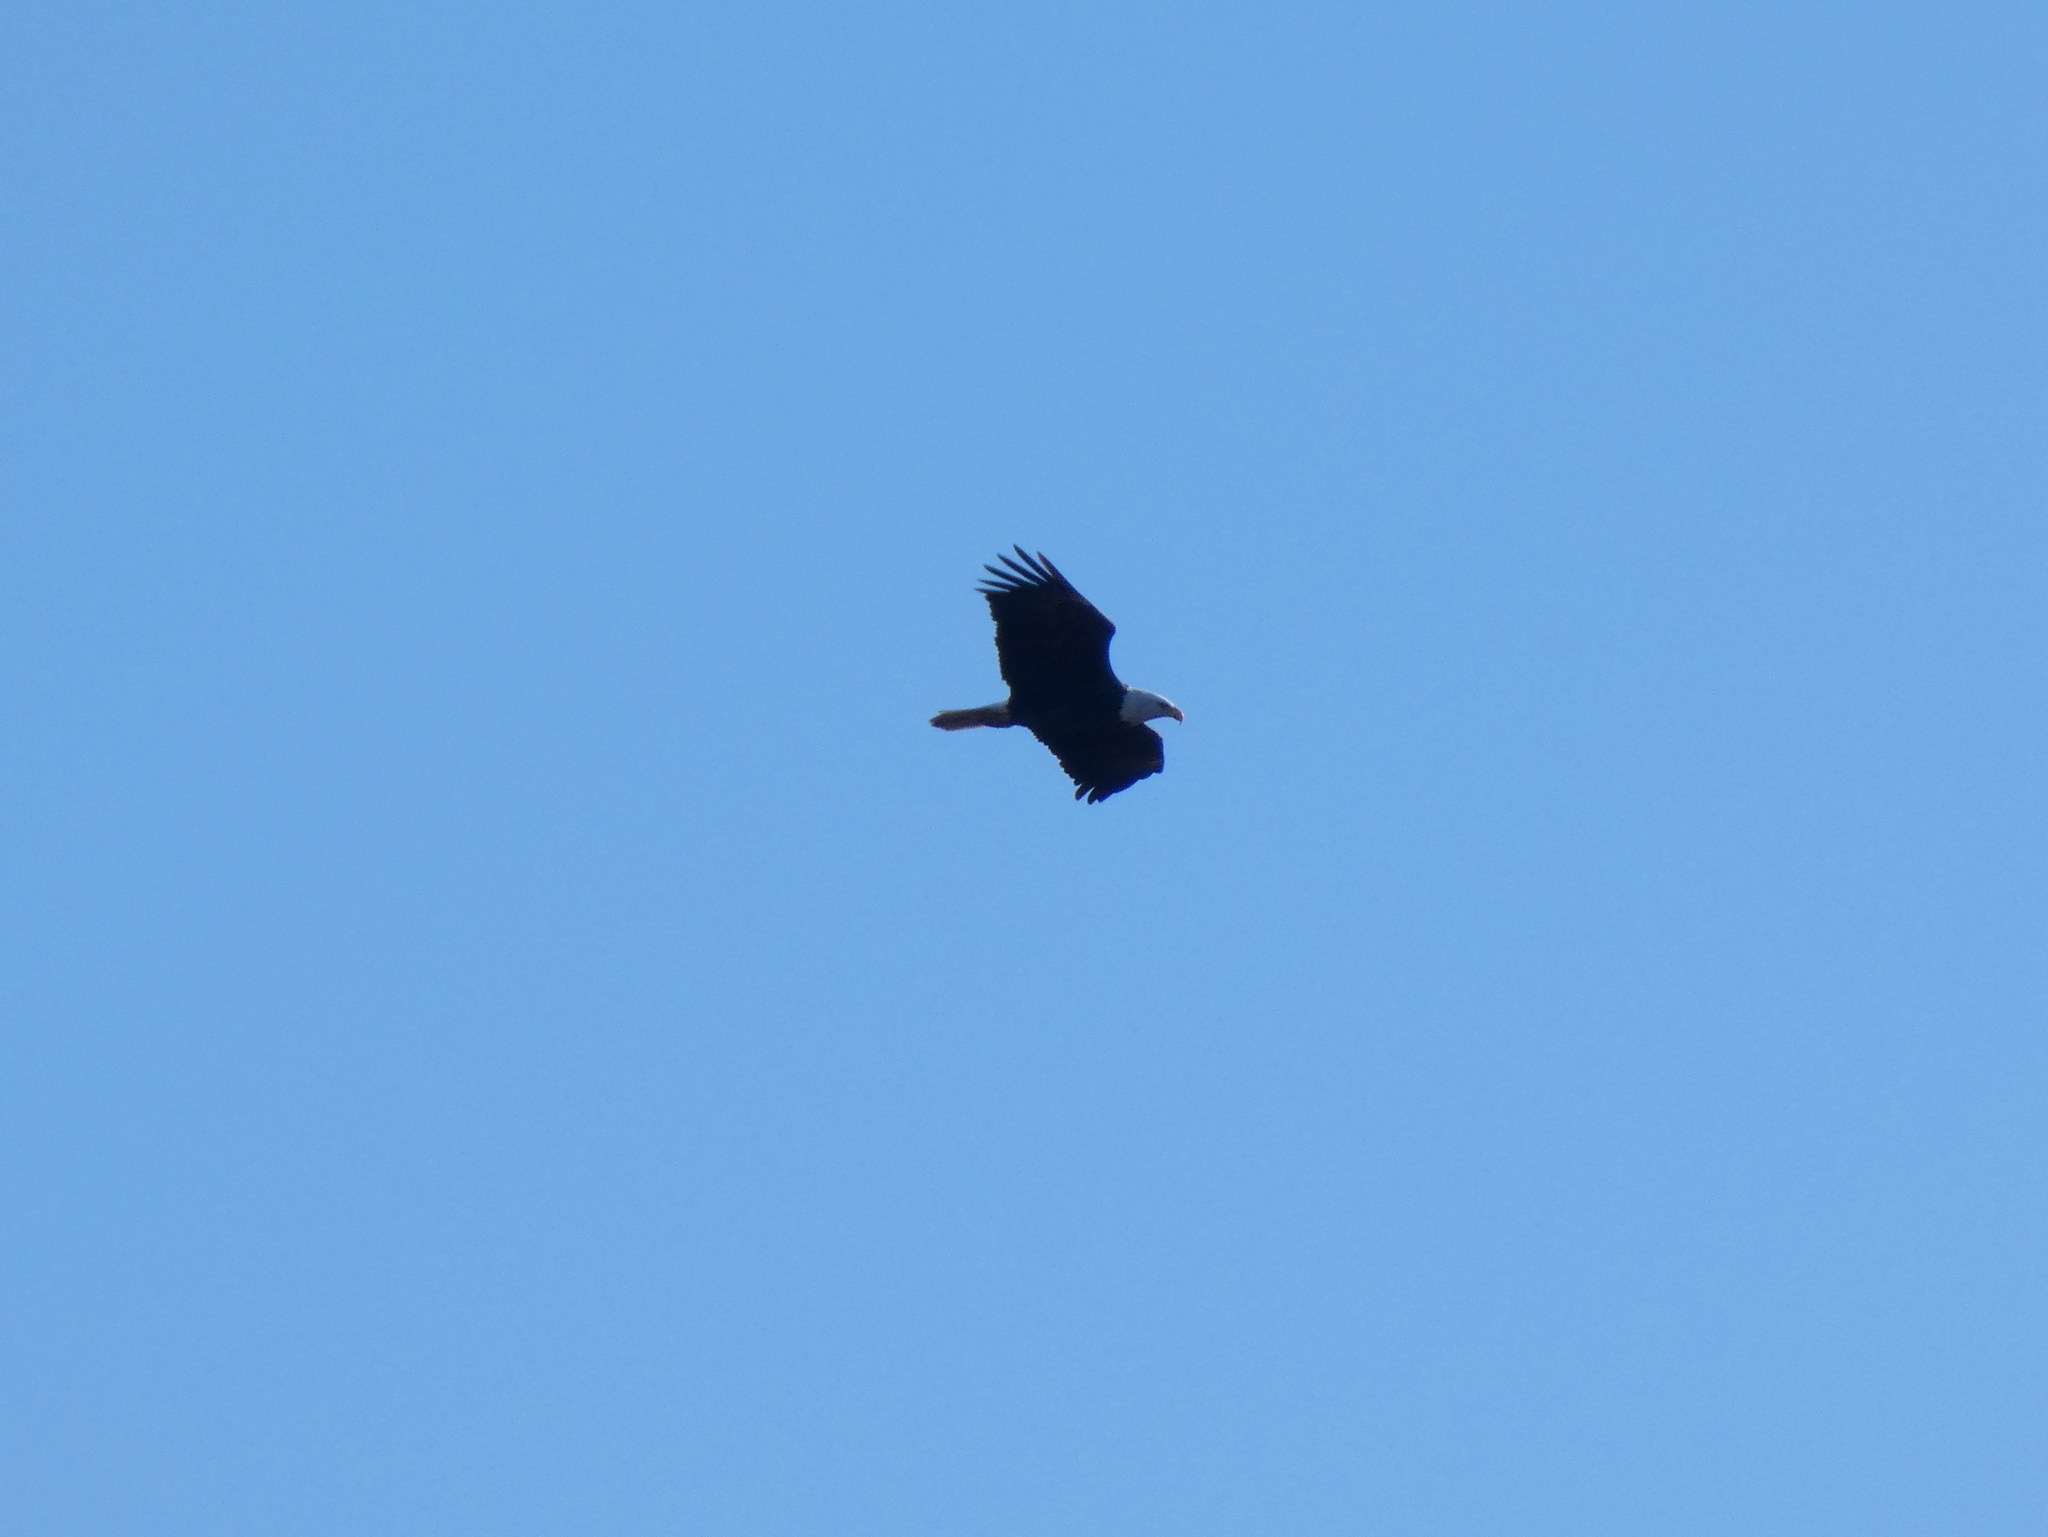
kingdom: Animalia
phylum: Chordata
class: Aves
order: Accipitriformes
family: Accipitridae
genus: Haliaeetus
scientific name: Haliaeetus leucocephalus
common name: Bald eagle
